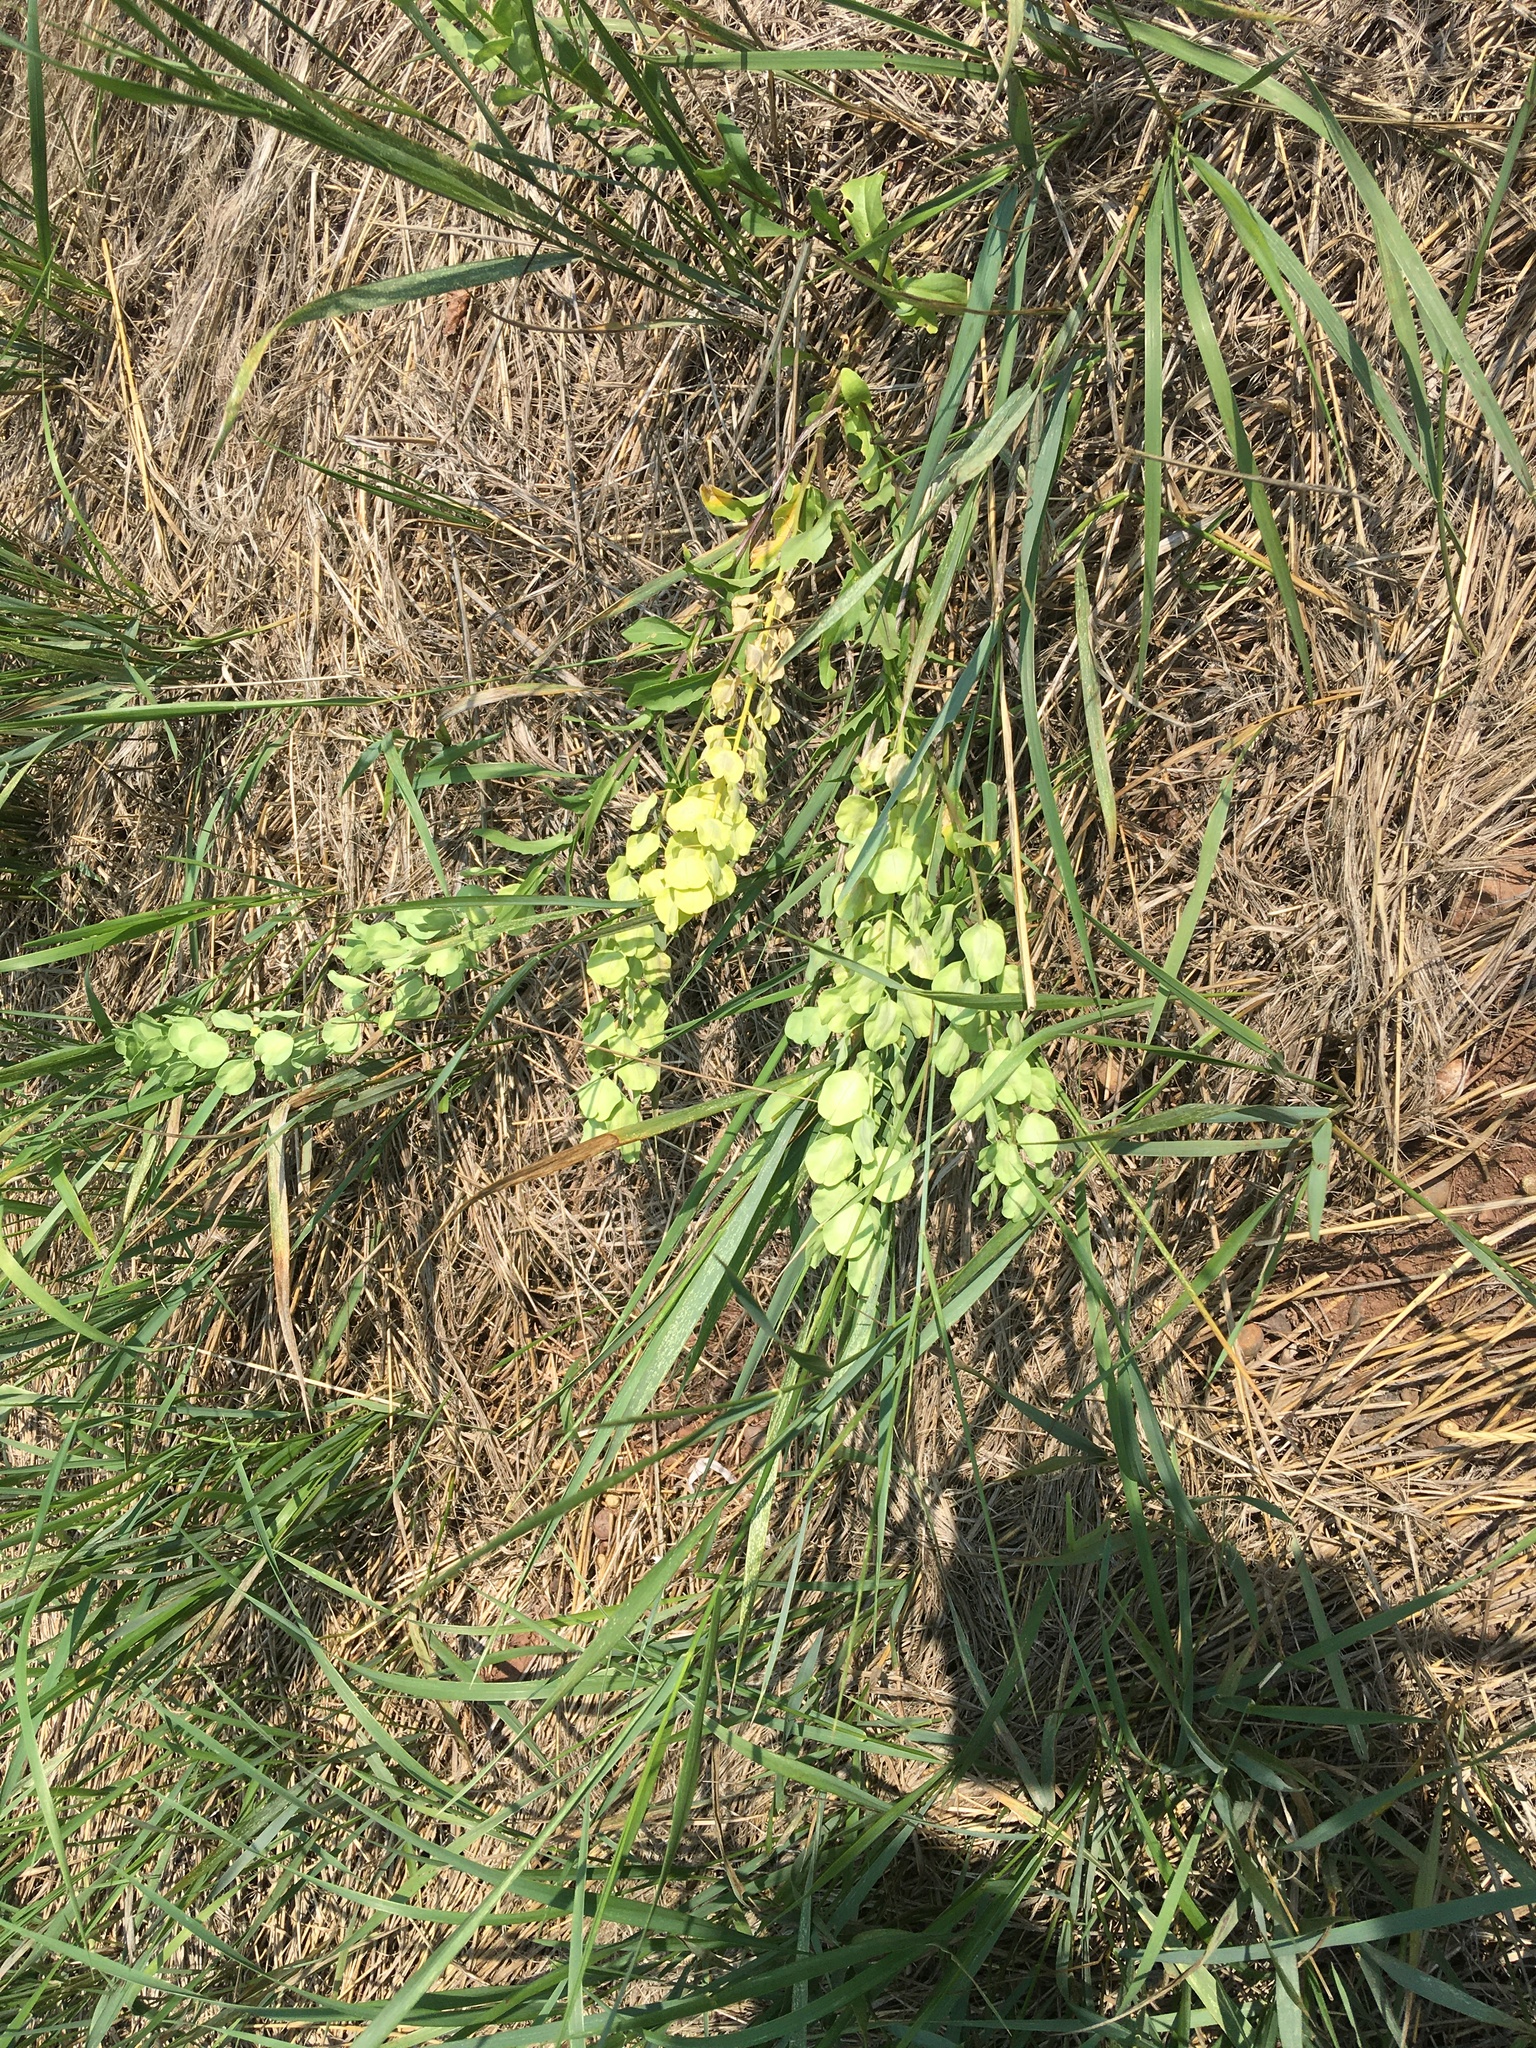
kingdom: Plantae
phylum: Tracheophyta
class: Magnoliopsida
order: Brassicales
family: Brassicaceae
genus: Thlaspi
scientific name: Thlaspi arvense
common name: Field pennycress
